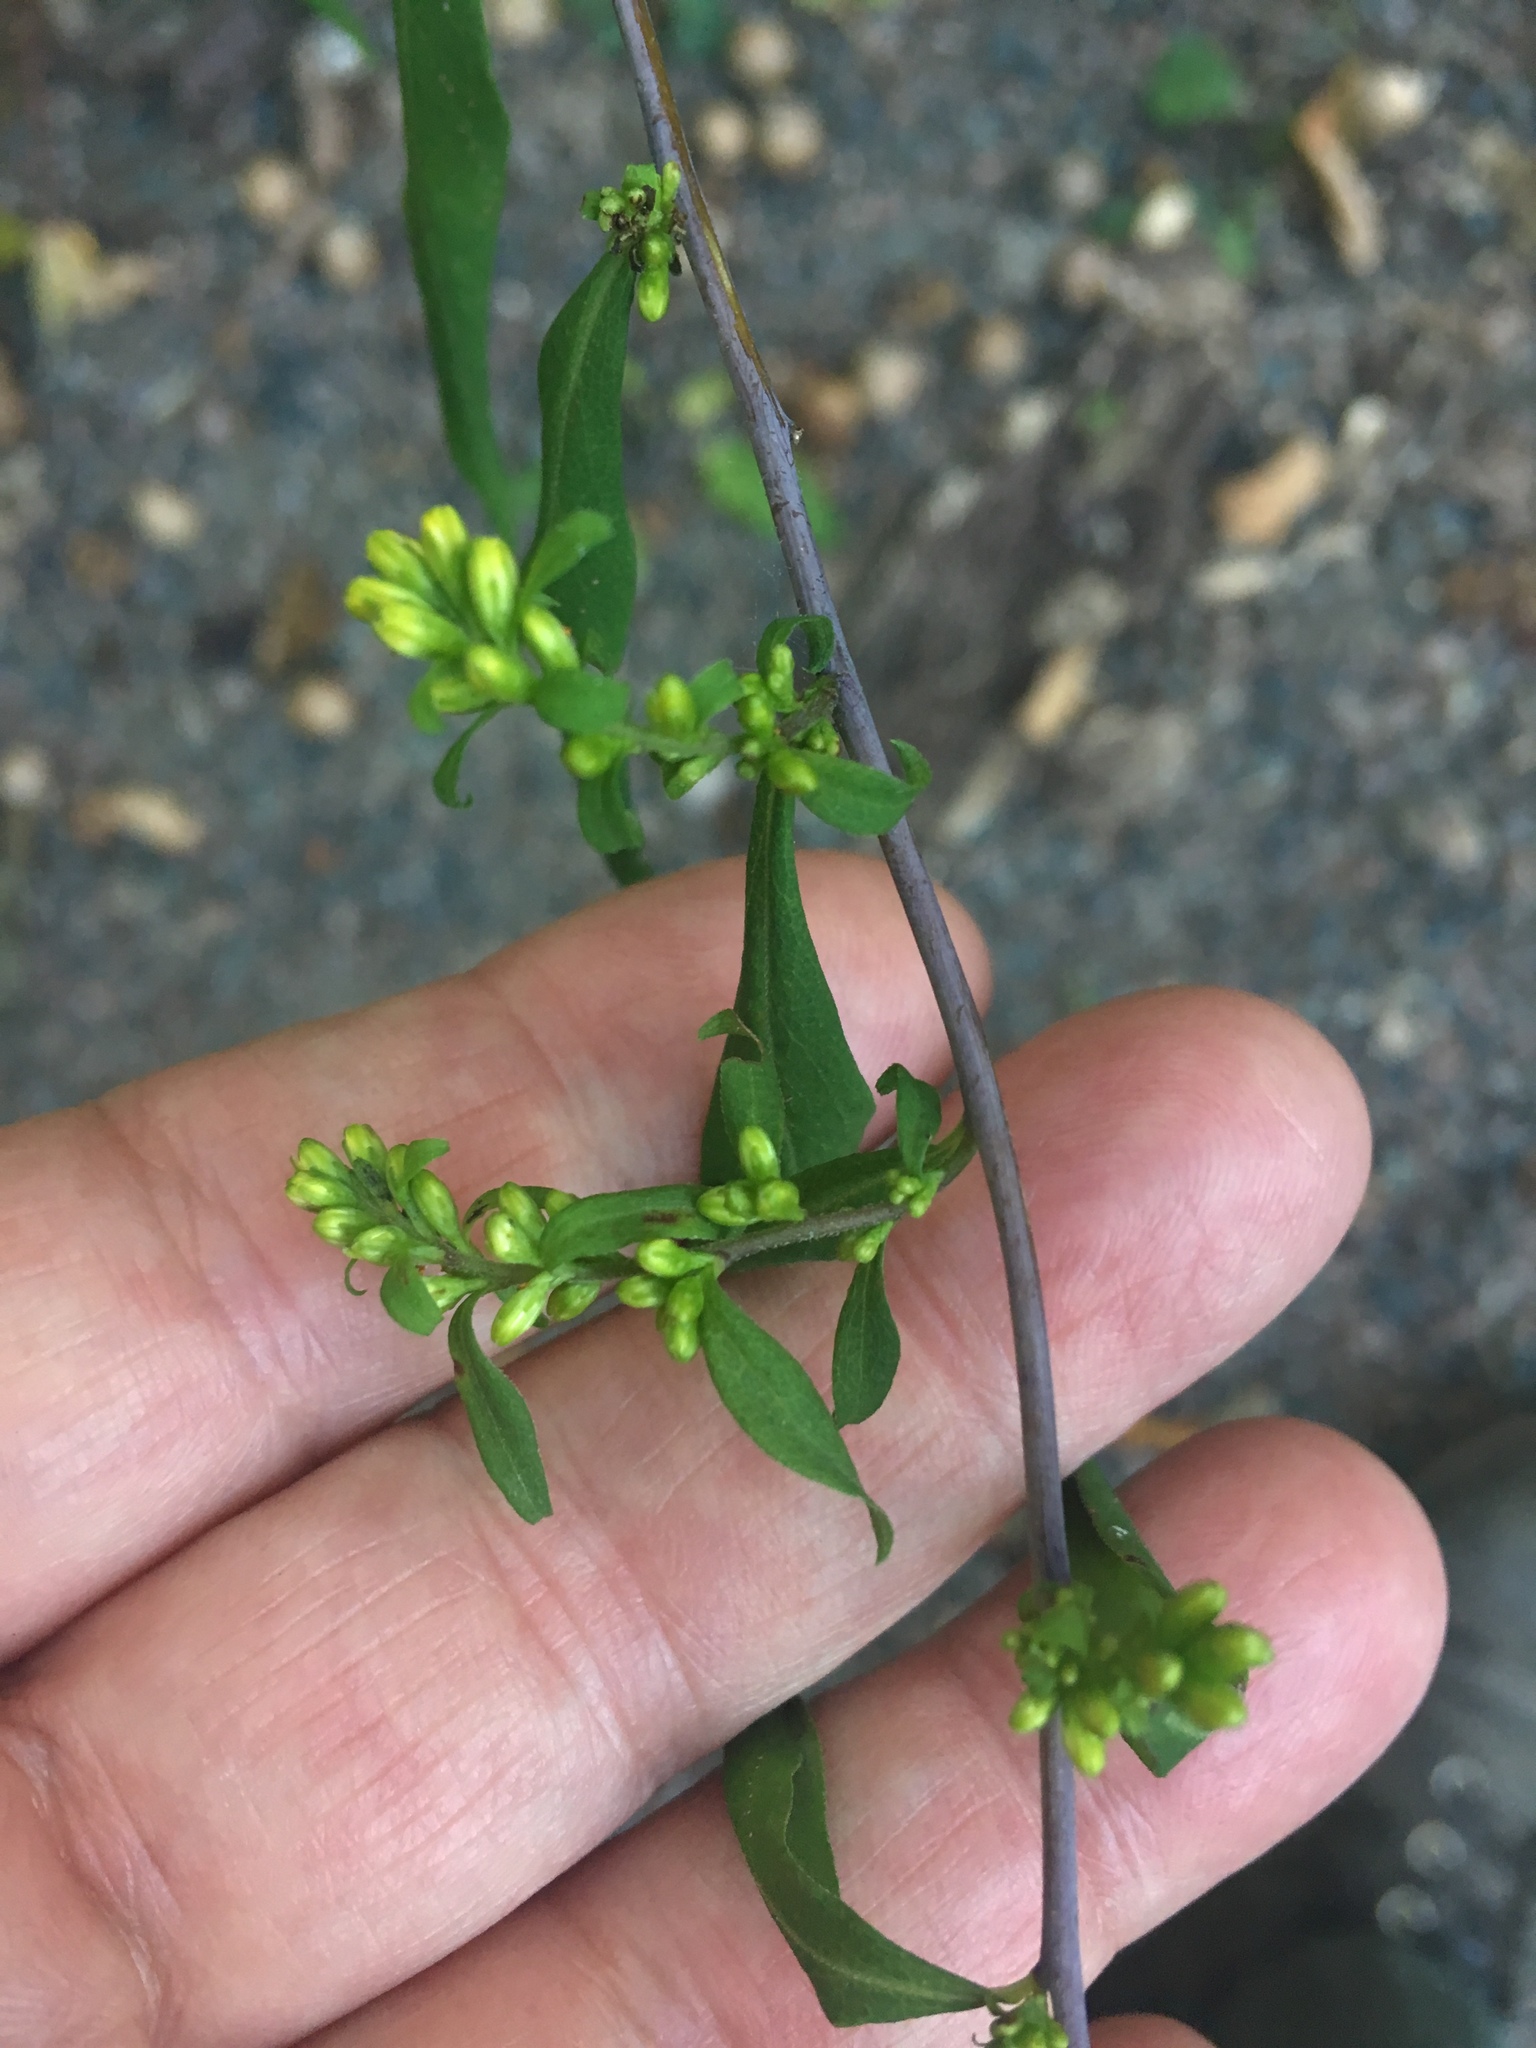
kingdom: Plantae
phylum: Tracheophyta
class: Magnoliopsida
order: Asterales
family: Asteraceae
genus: Solidago
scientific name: Solidago caesia
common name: Woodland goldenrod
